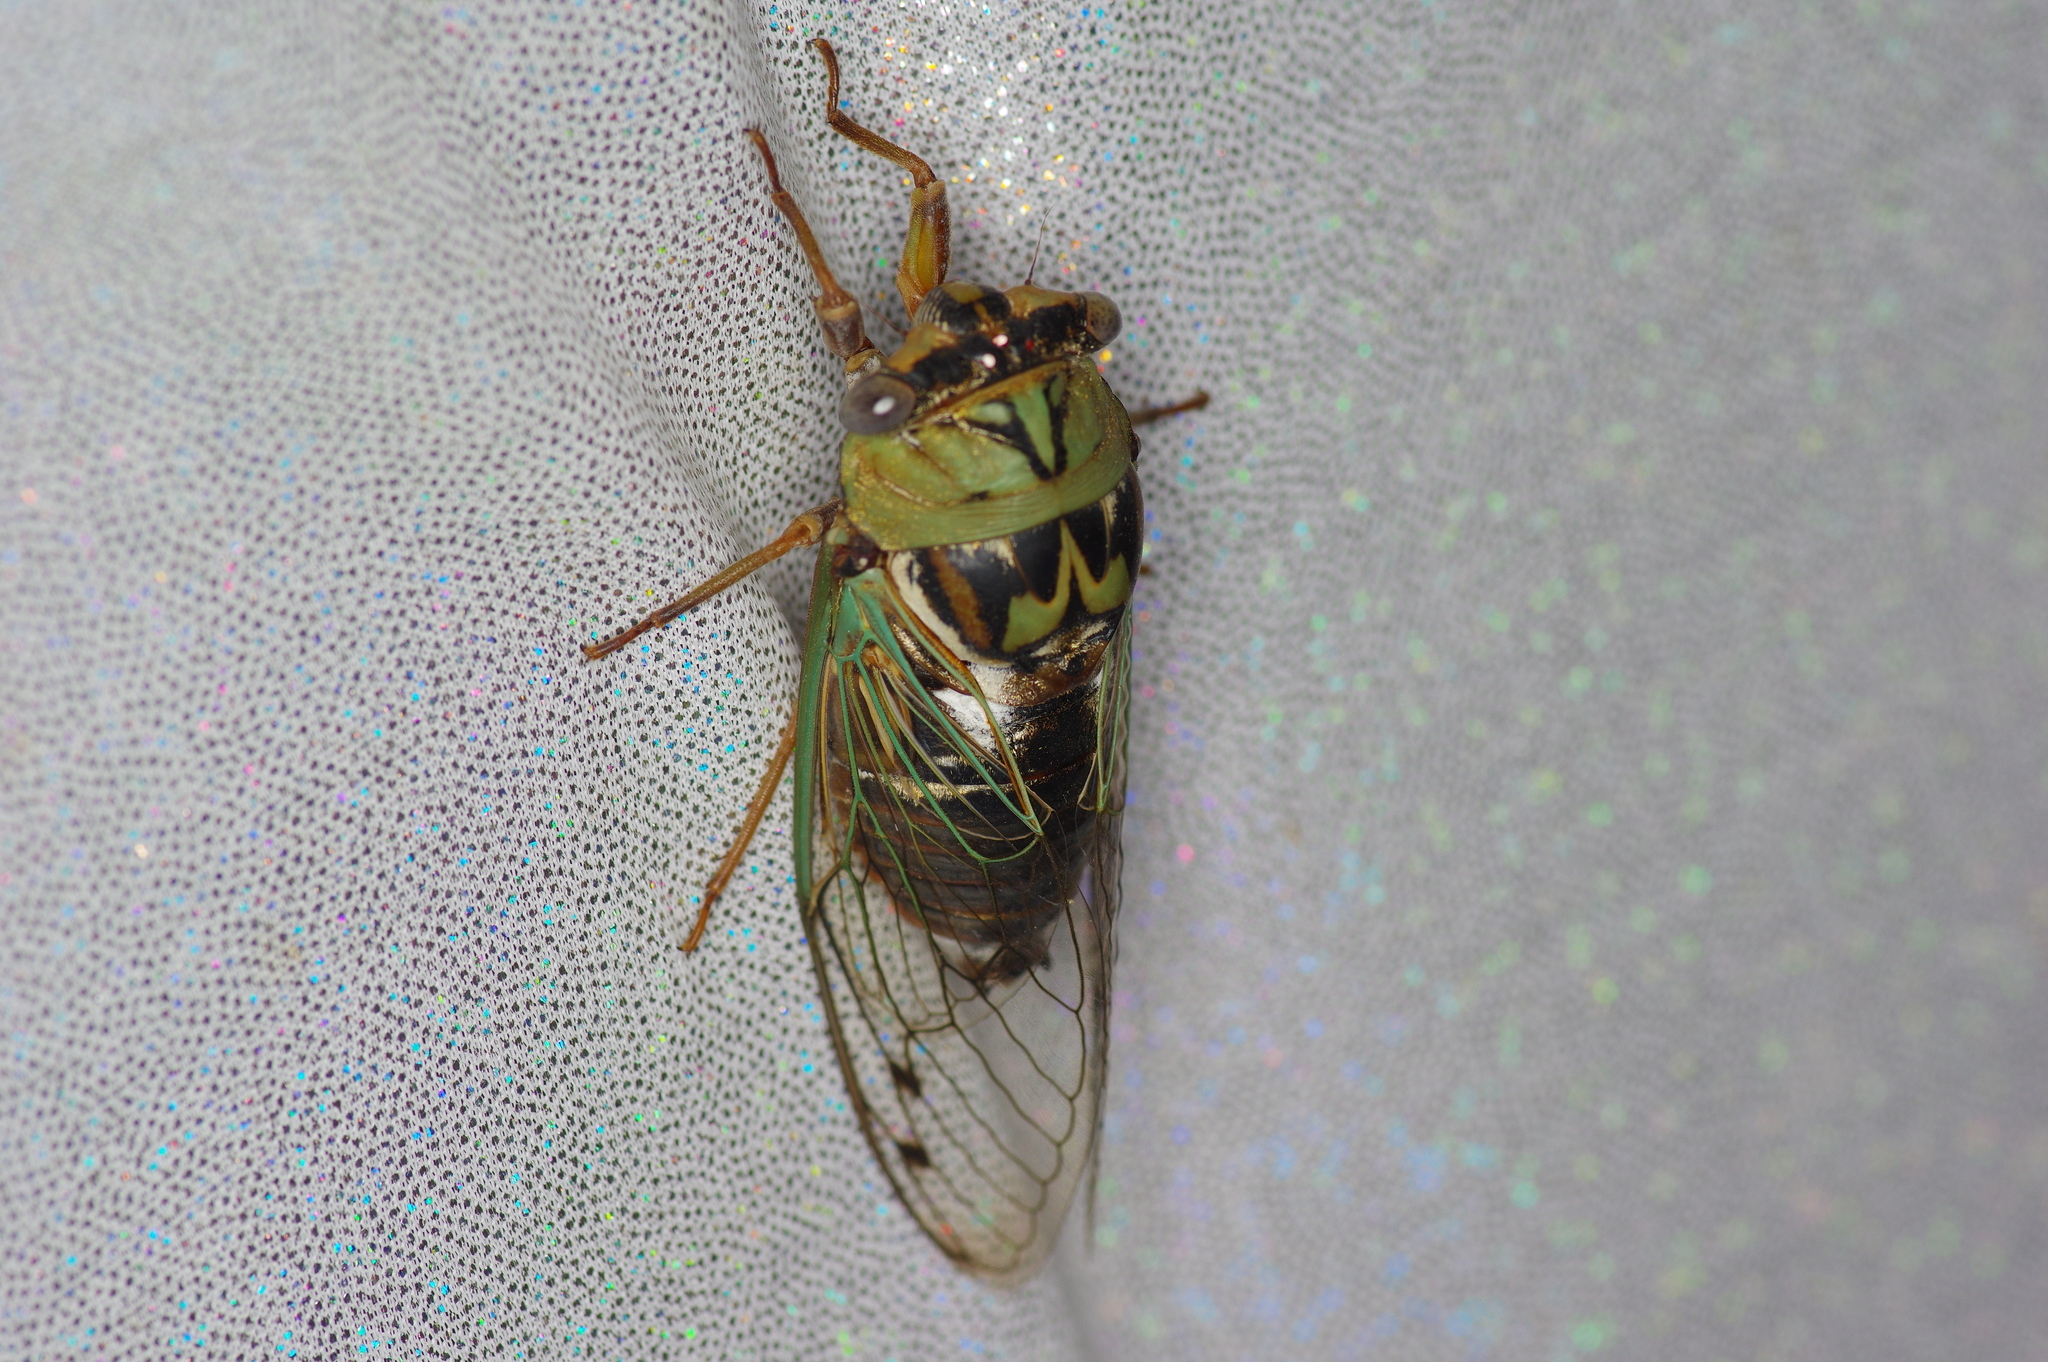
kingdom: Animalia
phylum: Arthropoda
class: Insecta
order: Hemiptera
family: Cicadidae
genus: Megatibicen
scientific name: Megatibicen resh
